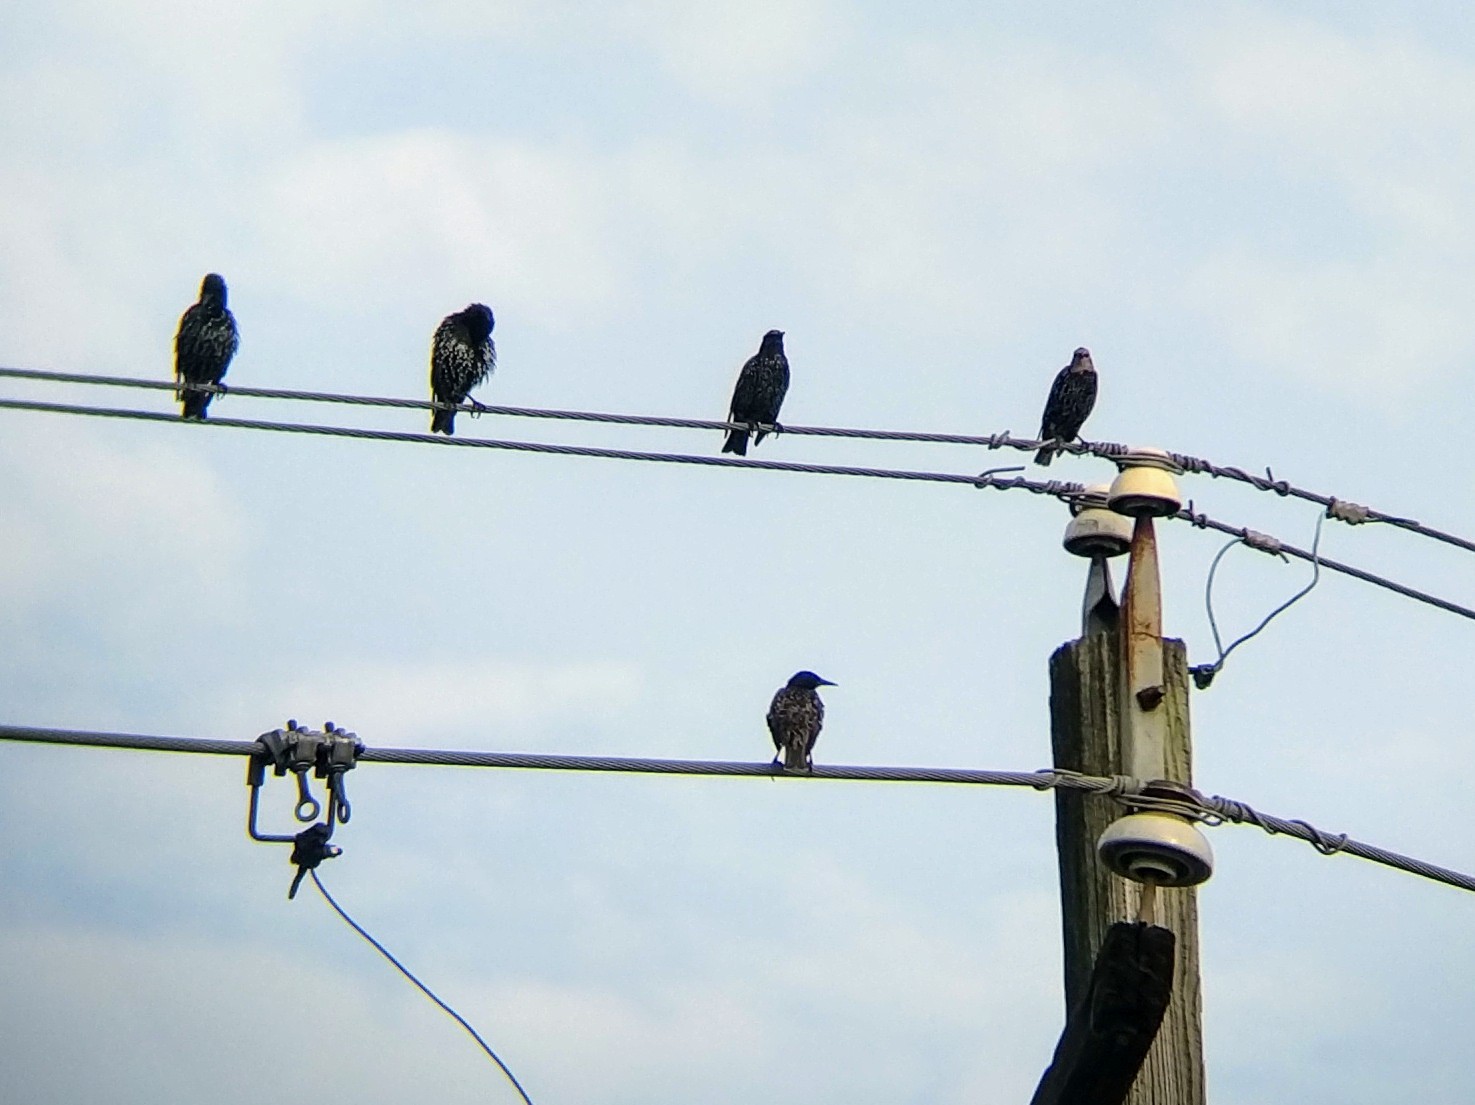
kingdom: Animalia
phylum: Chordata
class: Aves
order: Passeriformes
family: Sturnidae
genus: Sturnus
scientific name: Sturnus vulgaris
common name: Common starling
